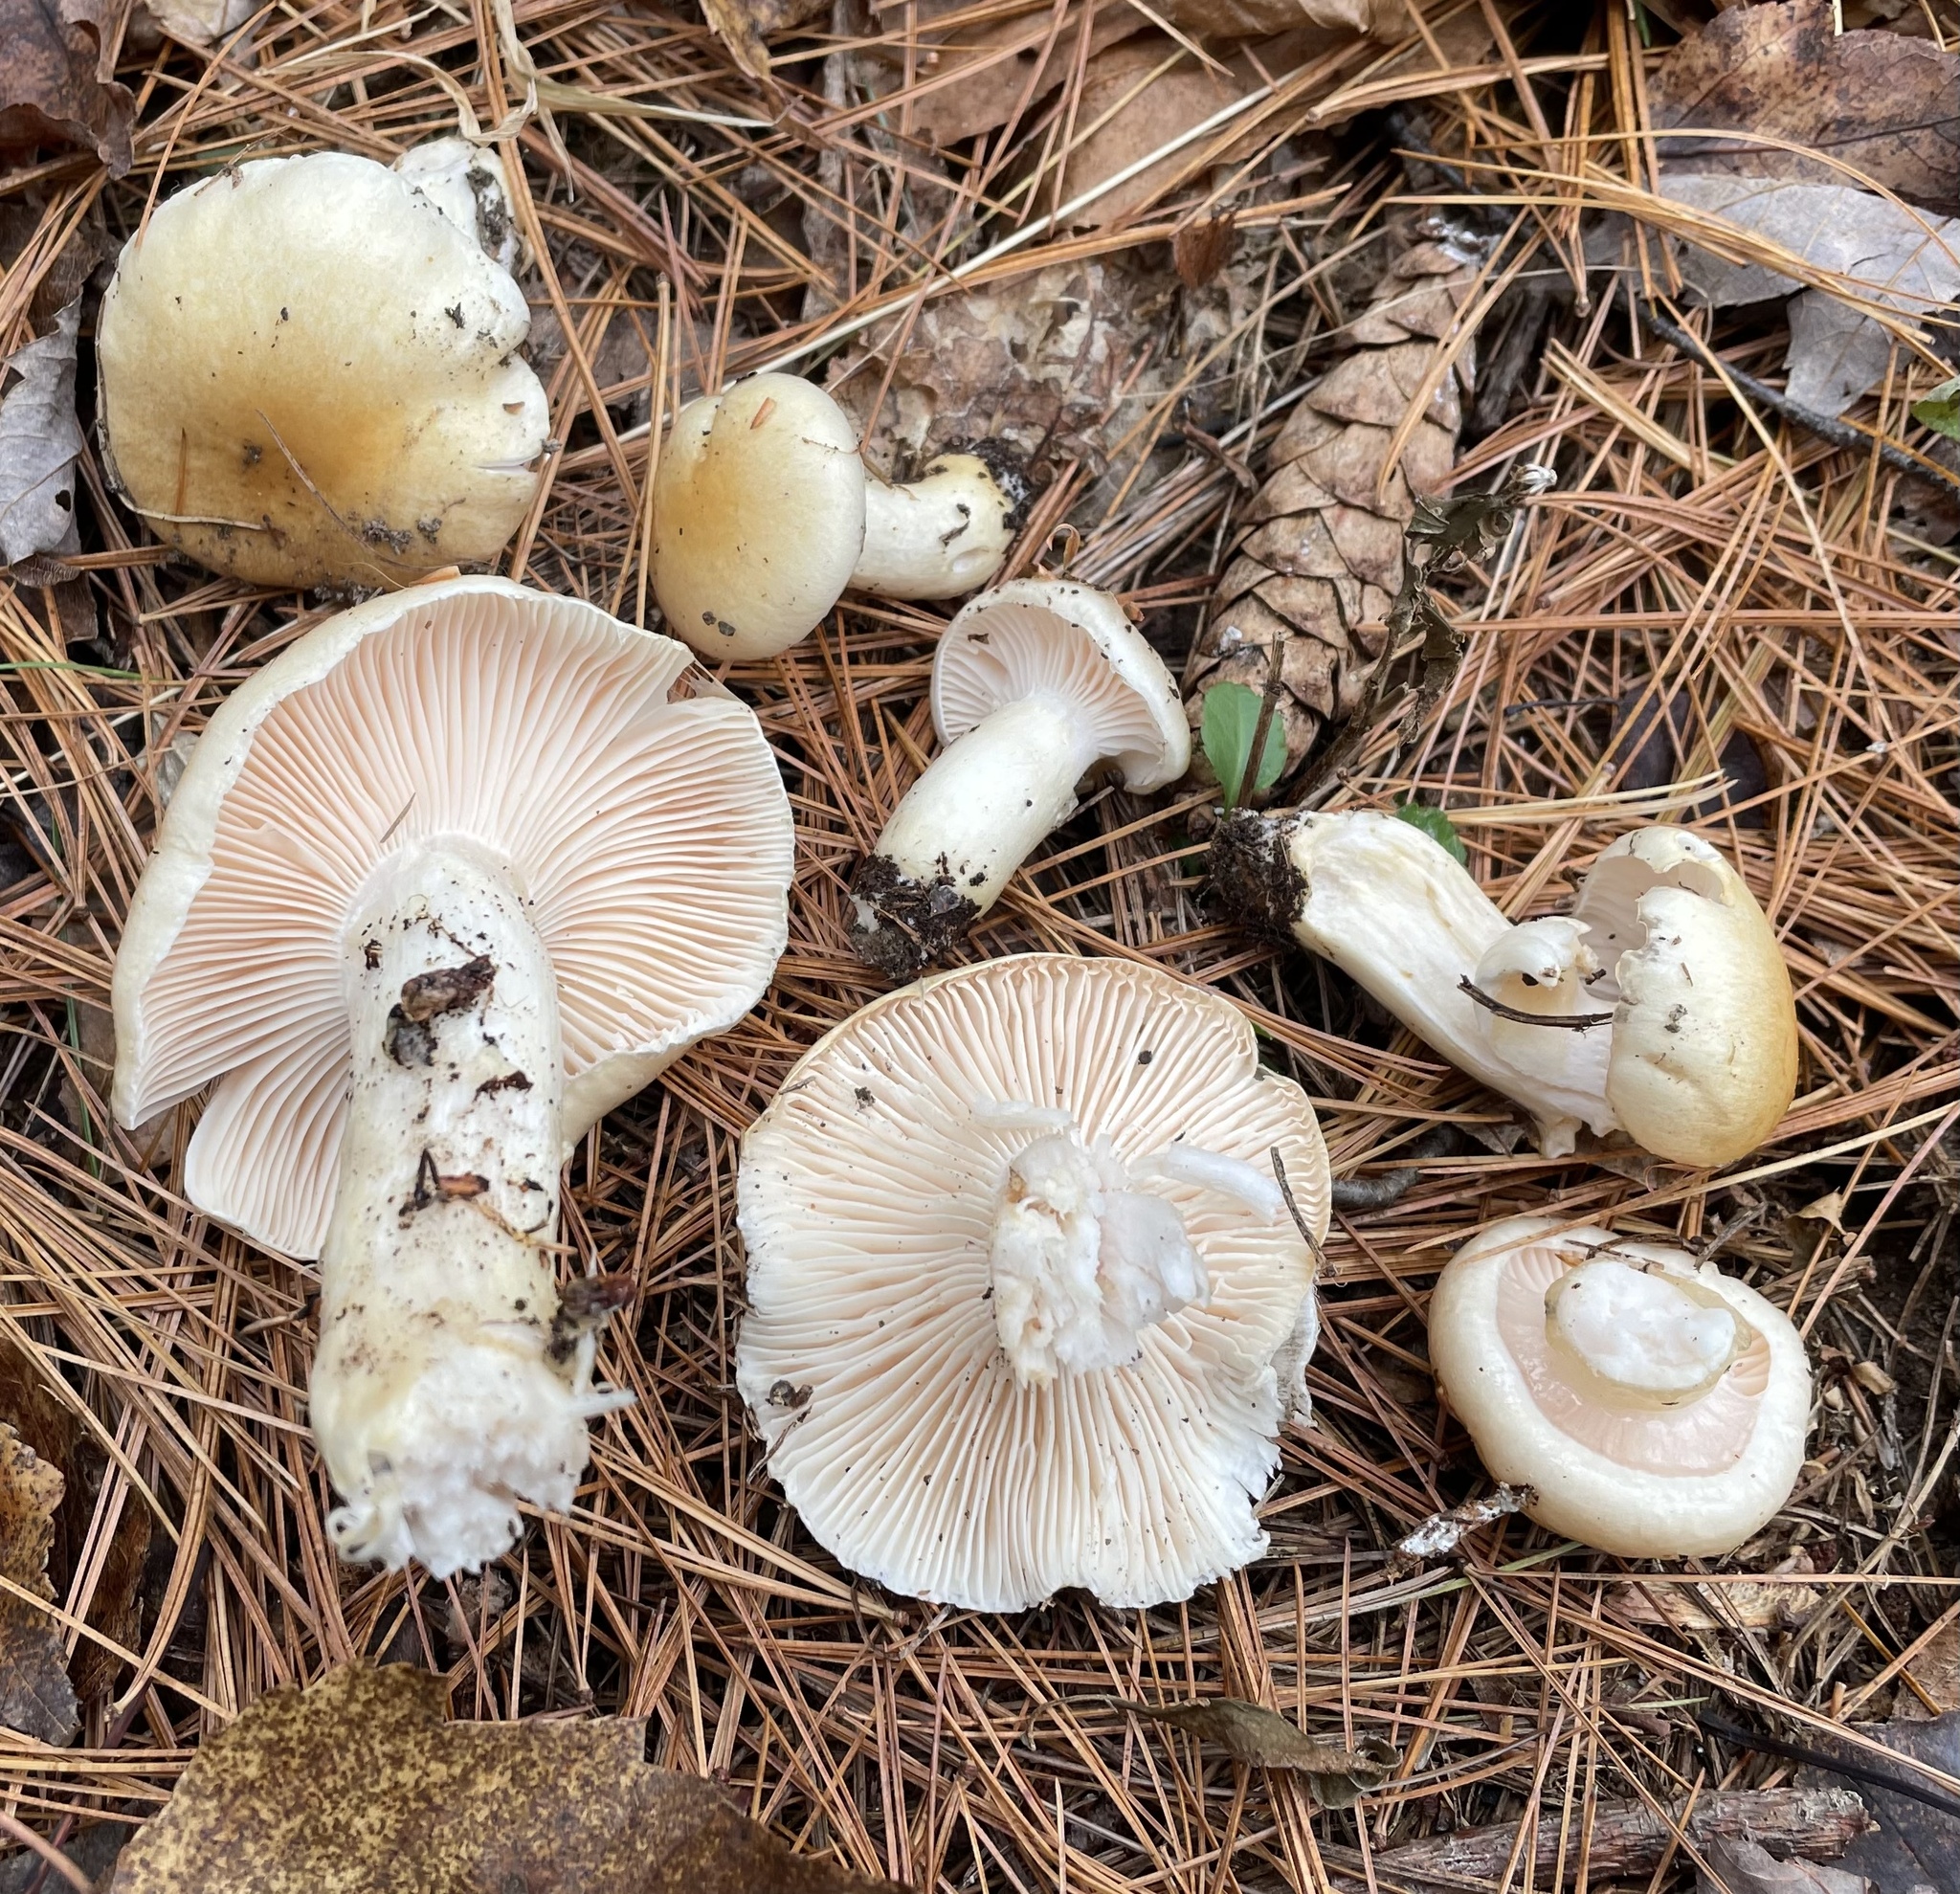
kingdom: Fungi
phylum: Basidiomycota
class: Agaricomycetes
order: Agaricales
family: Hygrophoraceae
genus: Hygrophorus
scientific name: Hygrophorus ligatus
